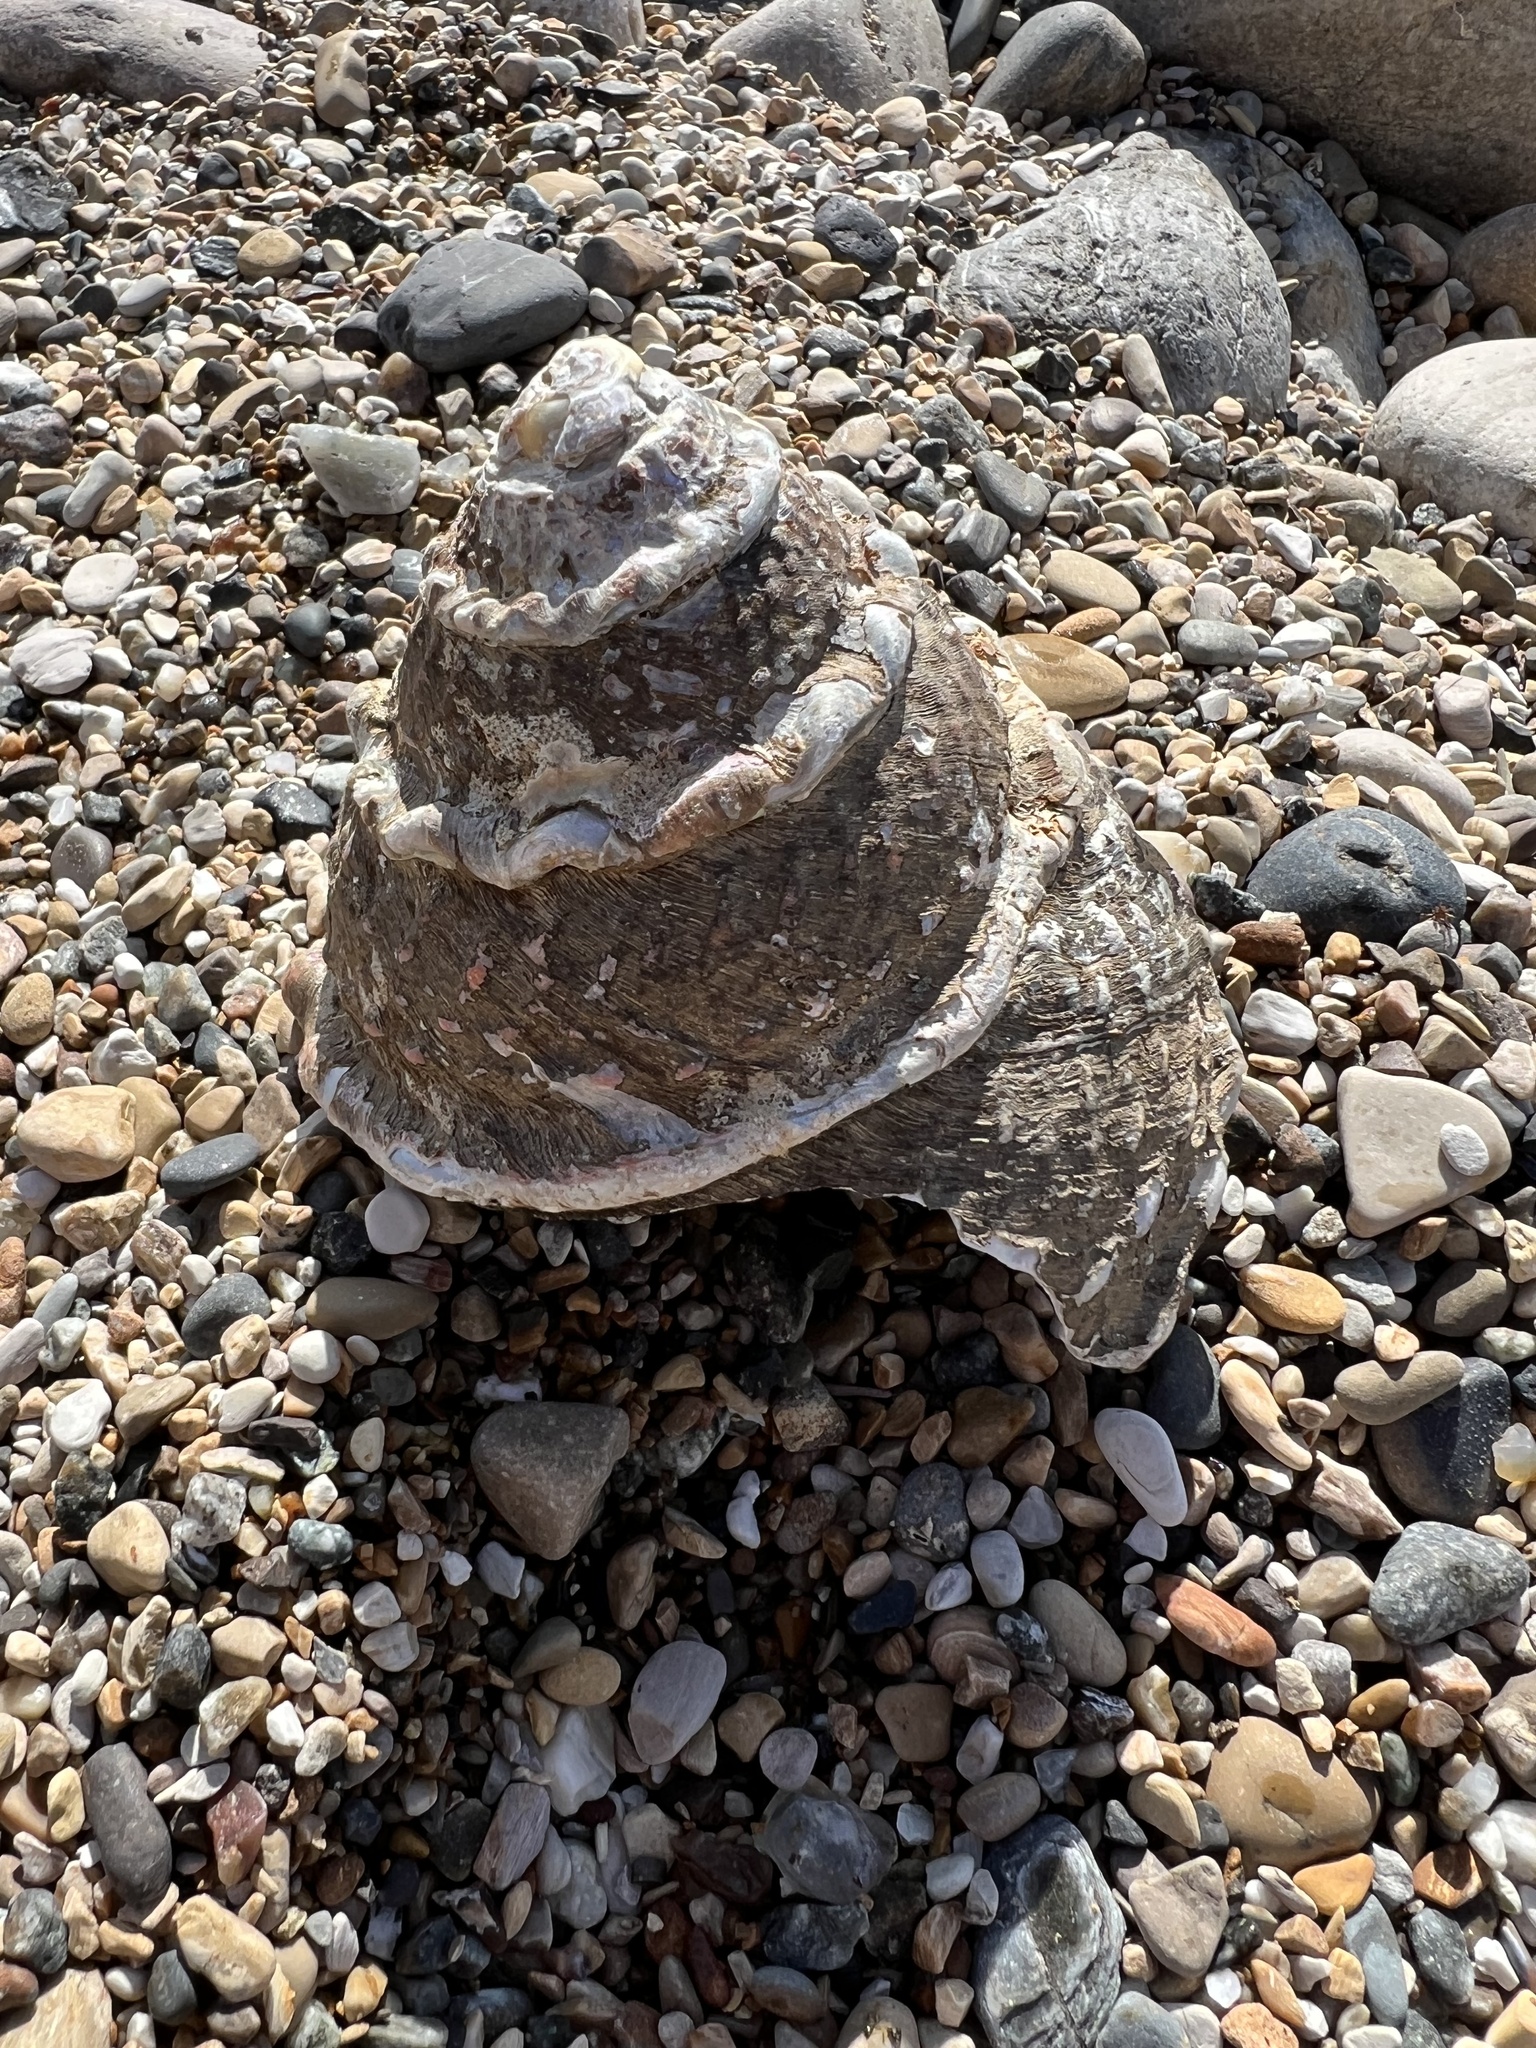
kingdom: Animalia
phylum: Mollusca
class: Gastropoda
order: Trochida
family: Turbinidae
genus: Megastraea
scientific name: Megastraea undosa
